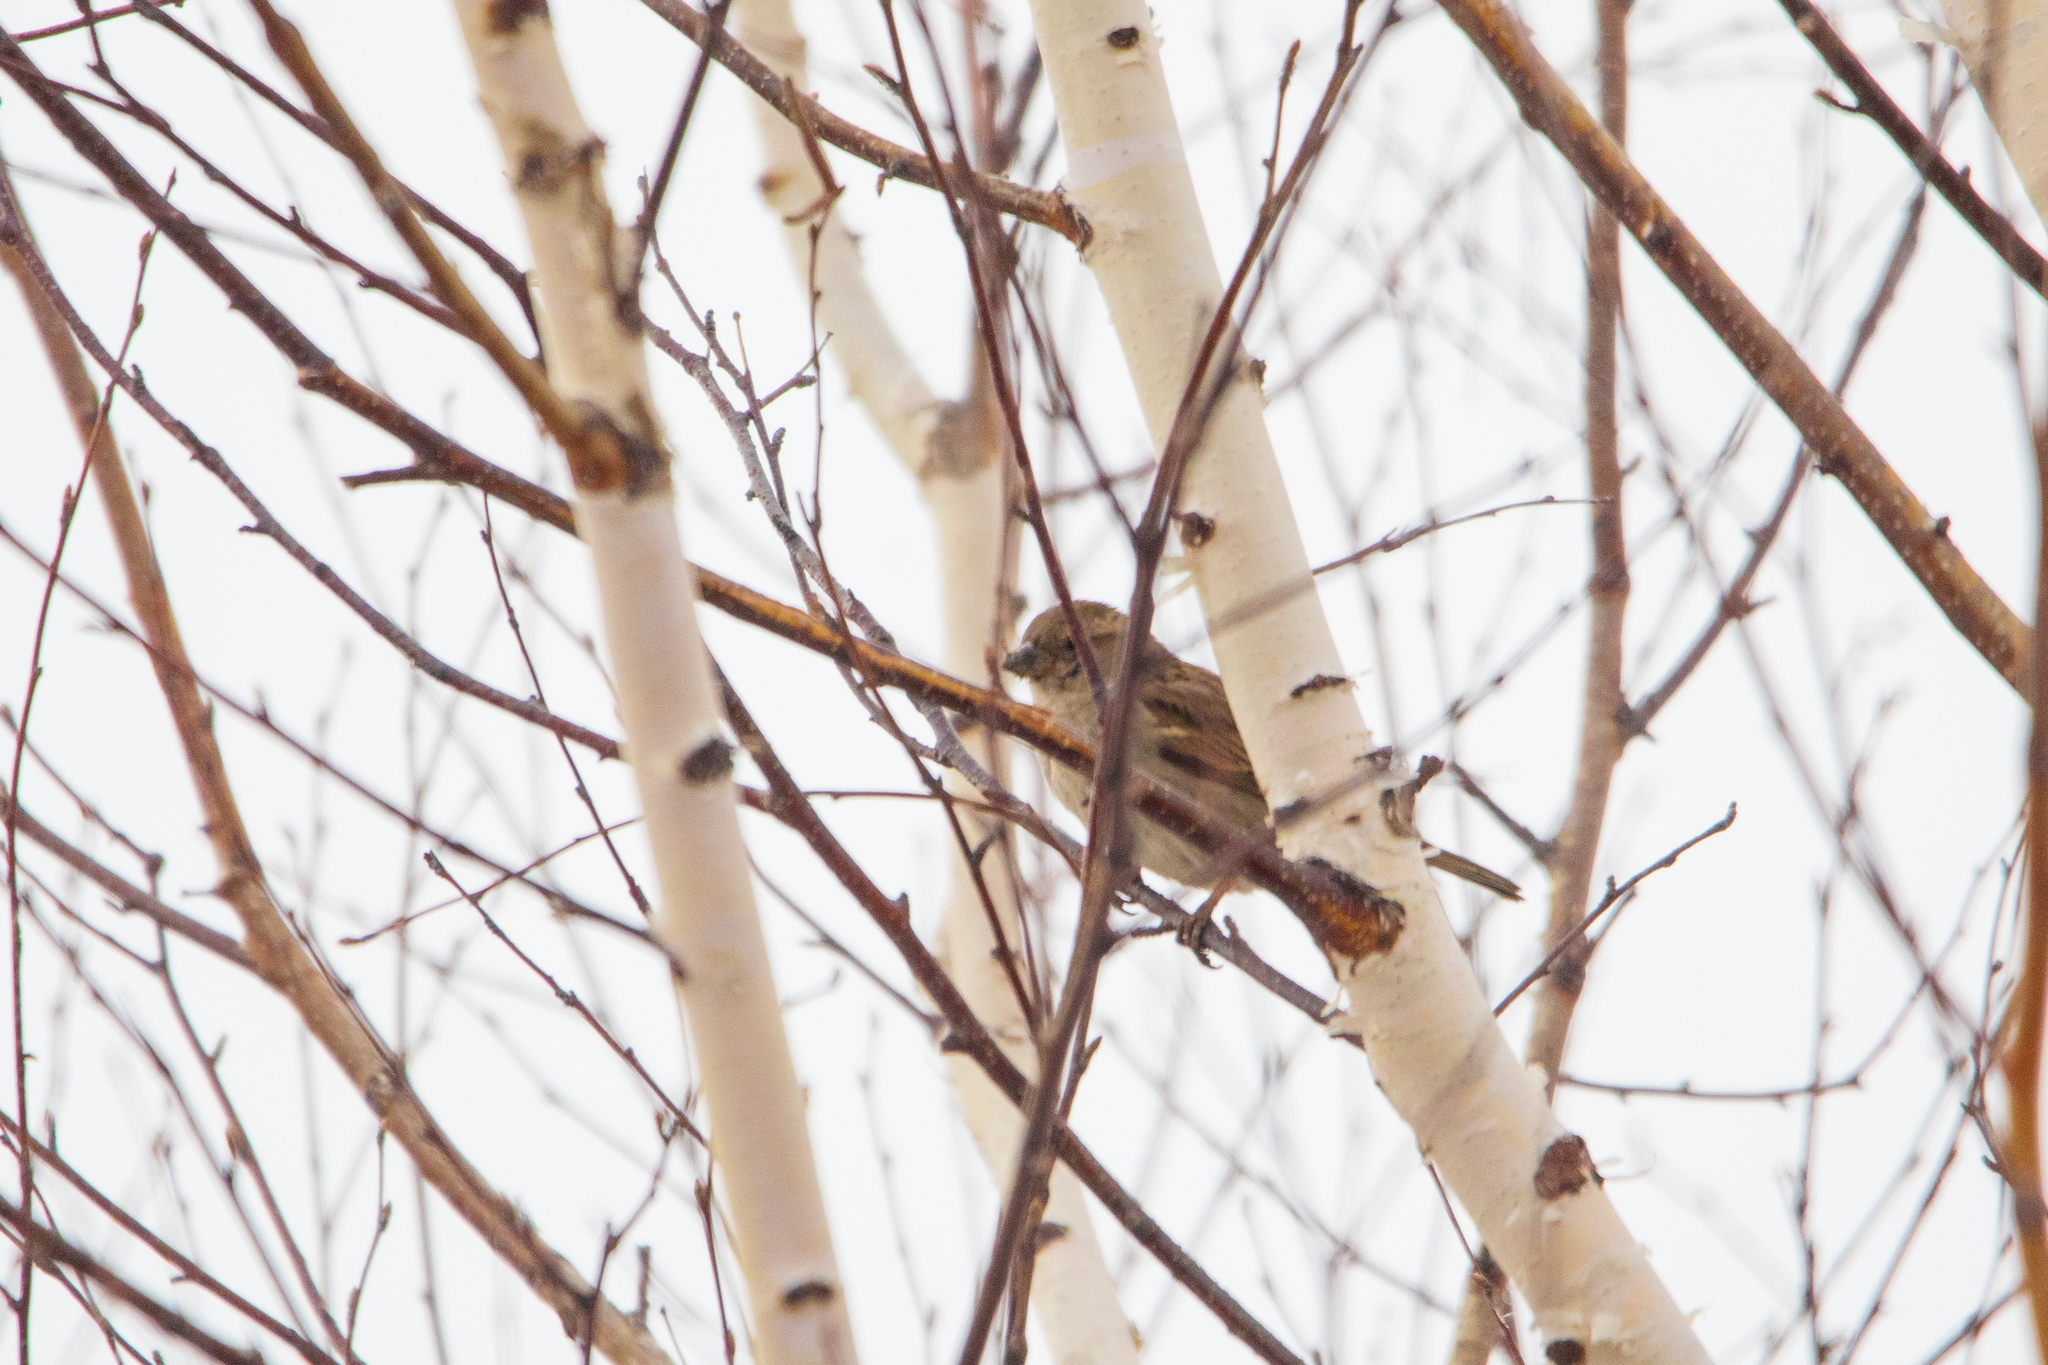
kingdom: Animalia
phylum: Chordata
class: Aves
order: Passeriformes
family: Passeridae
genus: Passer
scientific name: Passer domesticus
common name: House sparrow
